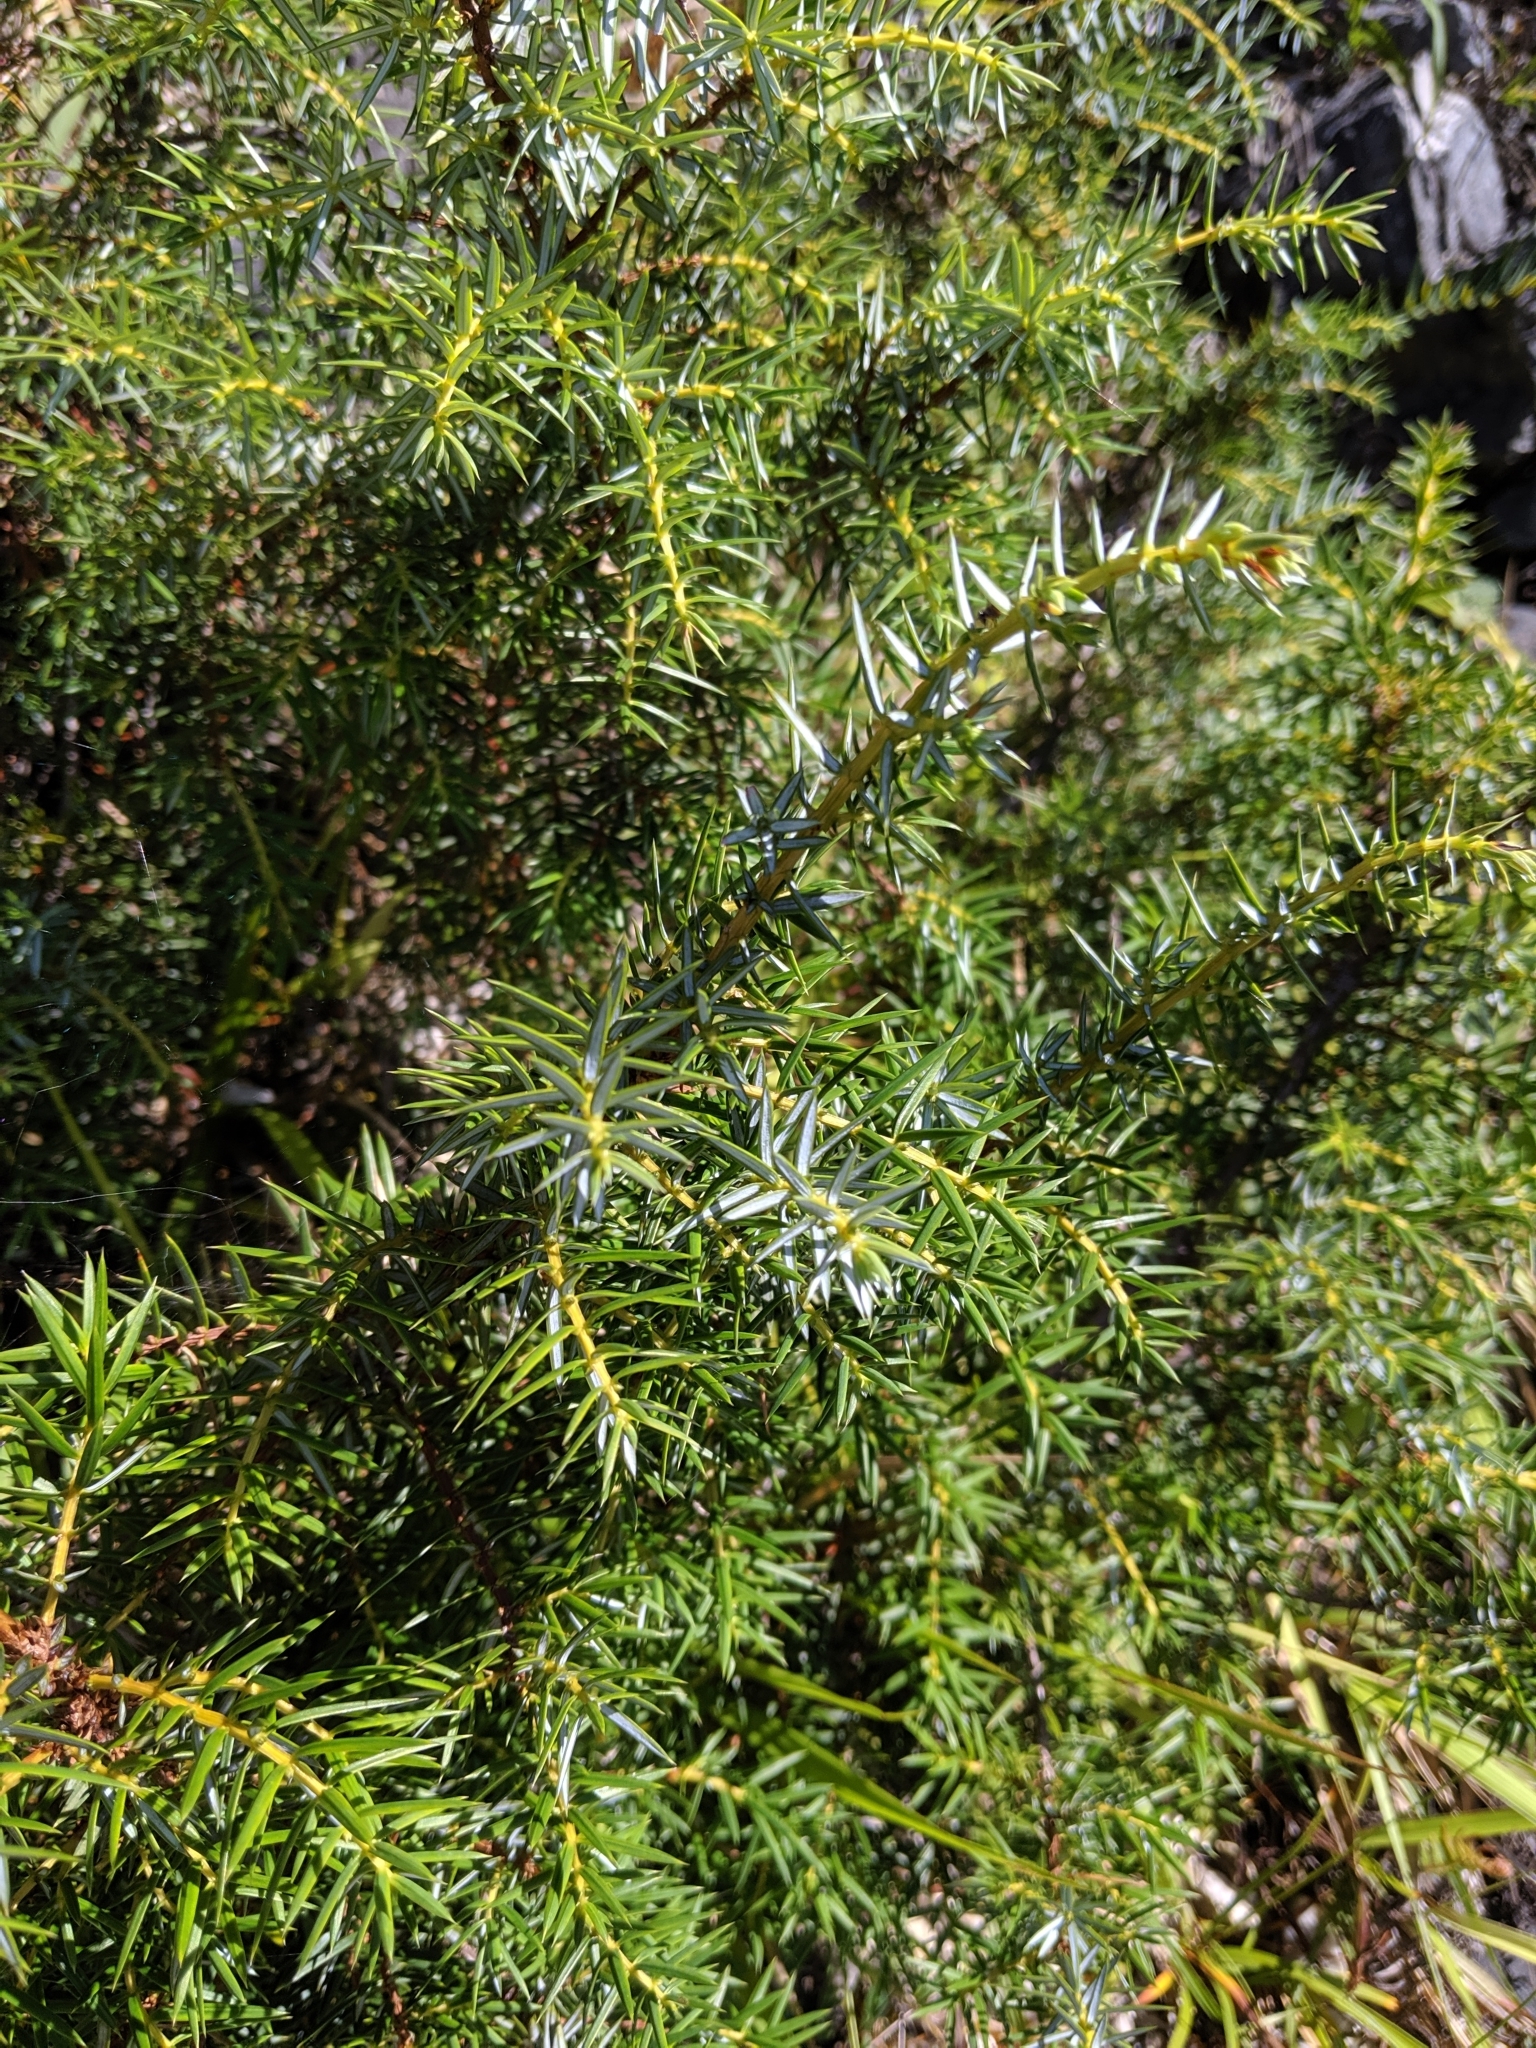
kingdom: Plantae
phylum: Tracheophyta
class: Pinopsida
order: Pinales
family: Cupressaceae
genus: Juniperus
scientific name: Juniperus formosana
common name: Formosan juniper
